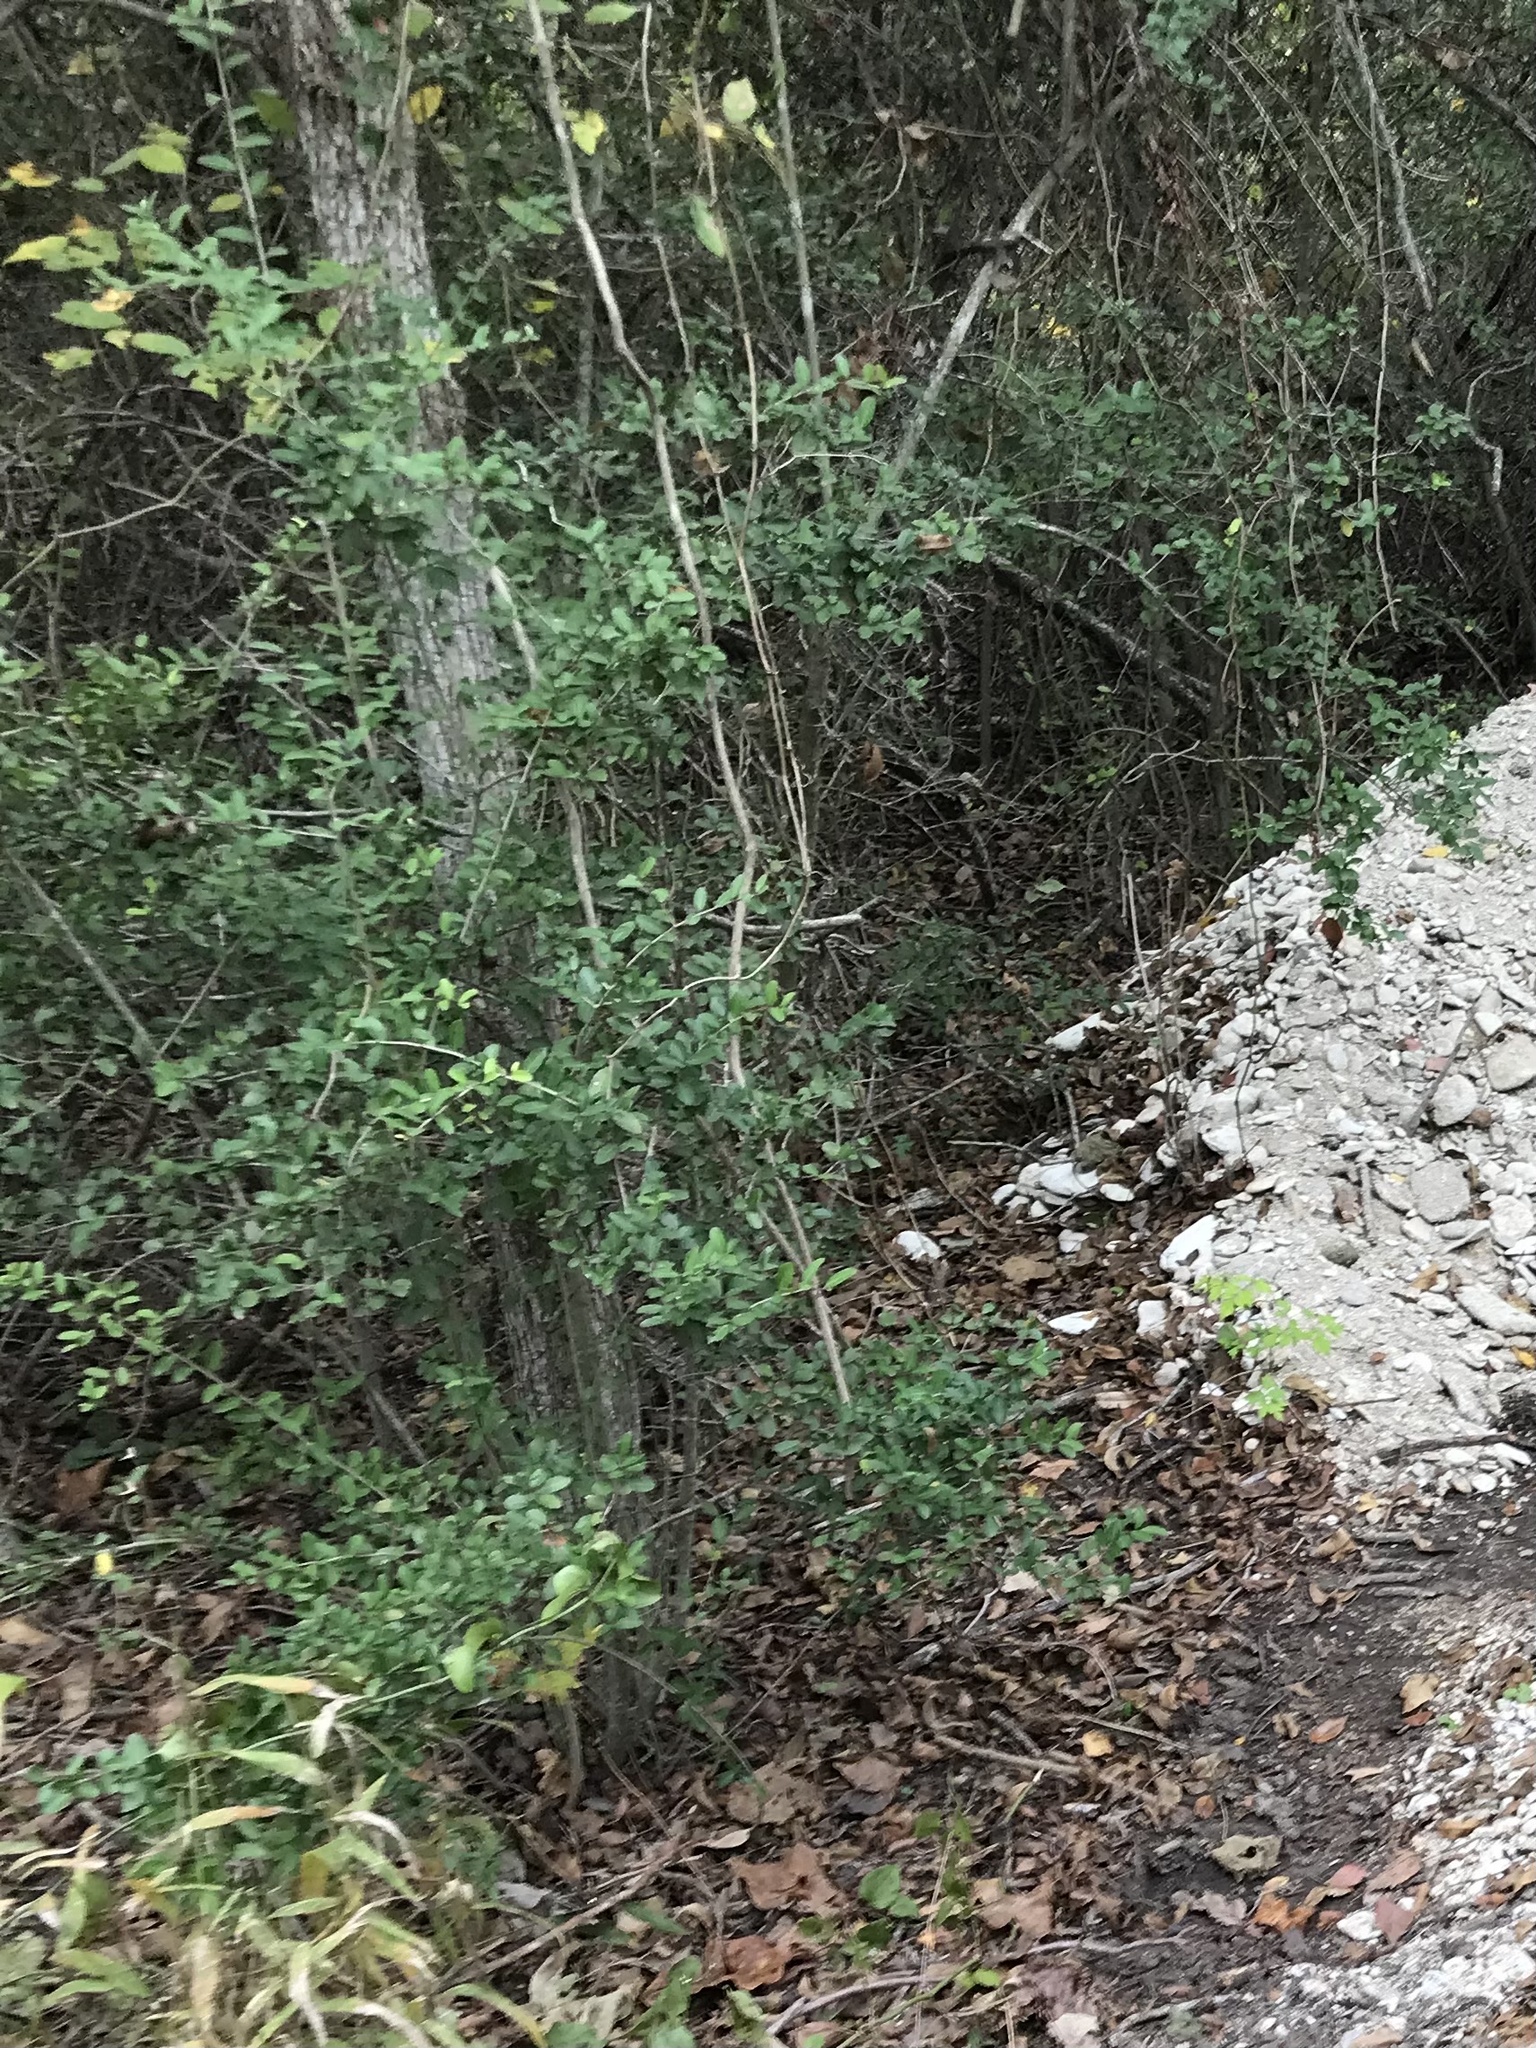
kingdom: Plantae
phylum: Tracheophyta
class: Magnoliopsida
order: Aquifoliales
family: Aquifoliaceae
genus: Ilex
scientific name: Ilex vomitoria
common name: Yaupon holly
